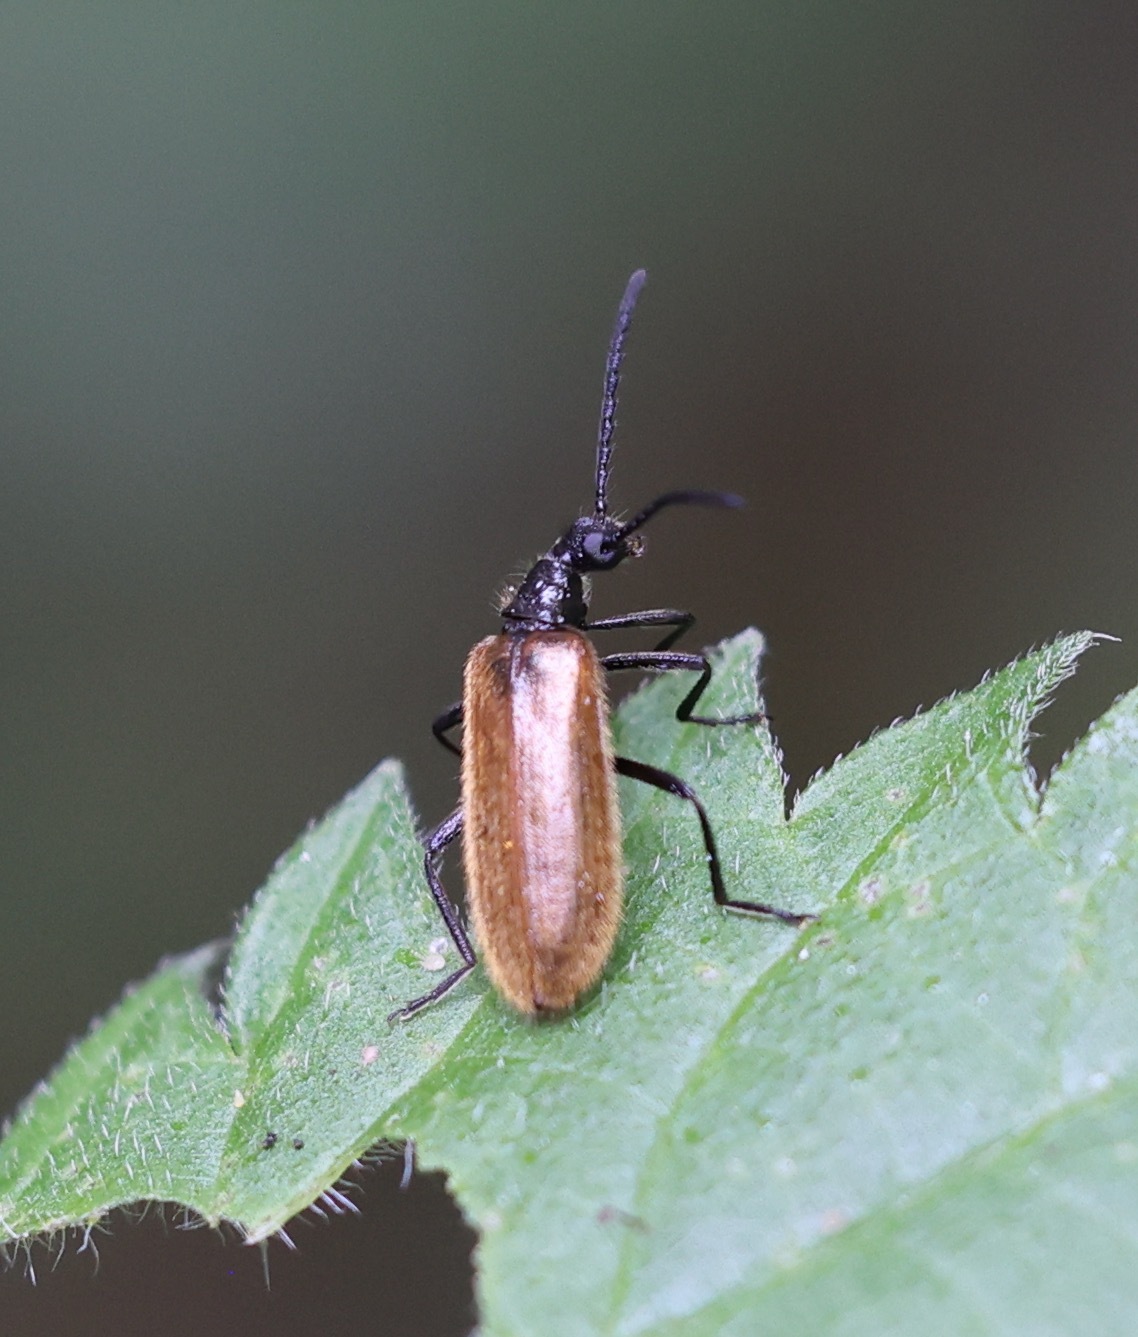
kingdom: Animalia
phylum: Arthropoda
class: Insecta
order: Coleoptera
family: Tenebrionidae
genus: Lagria
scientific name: Lagria hirta
